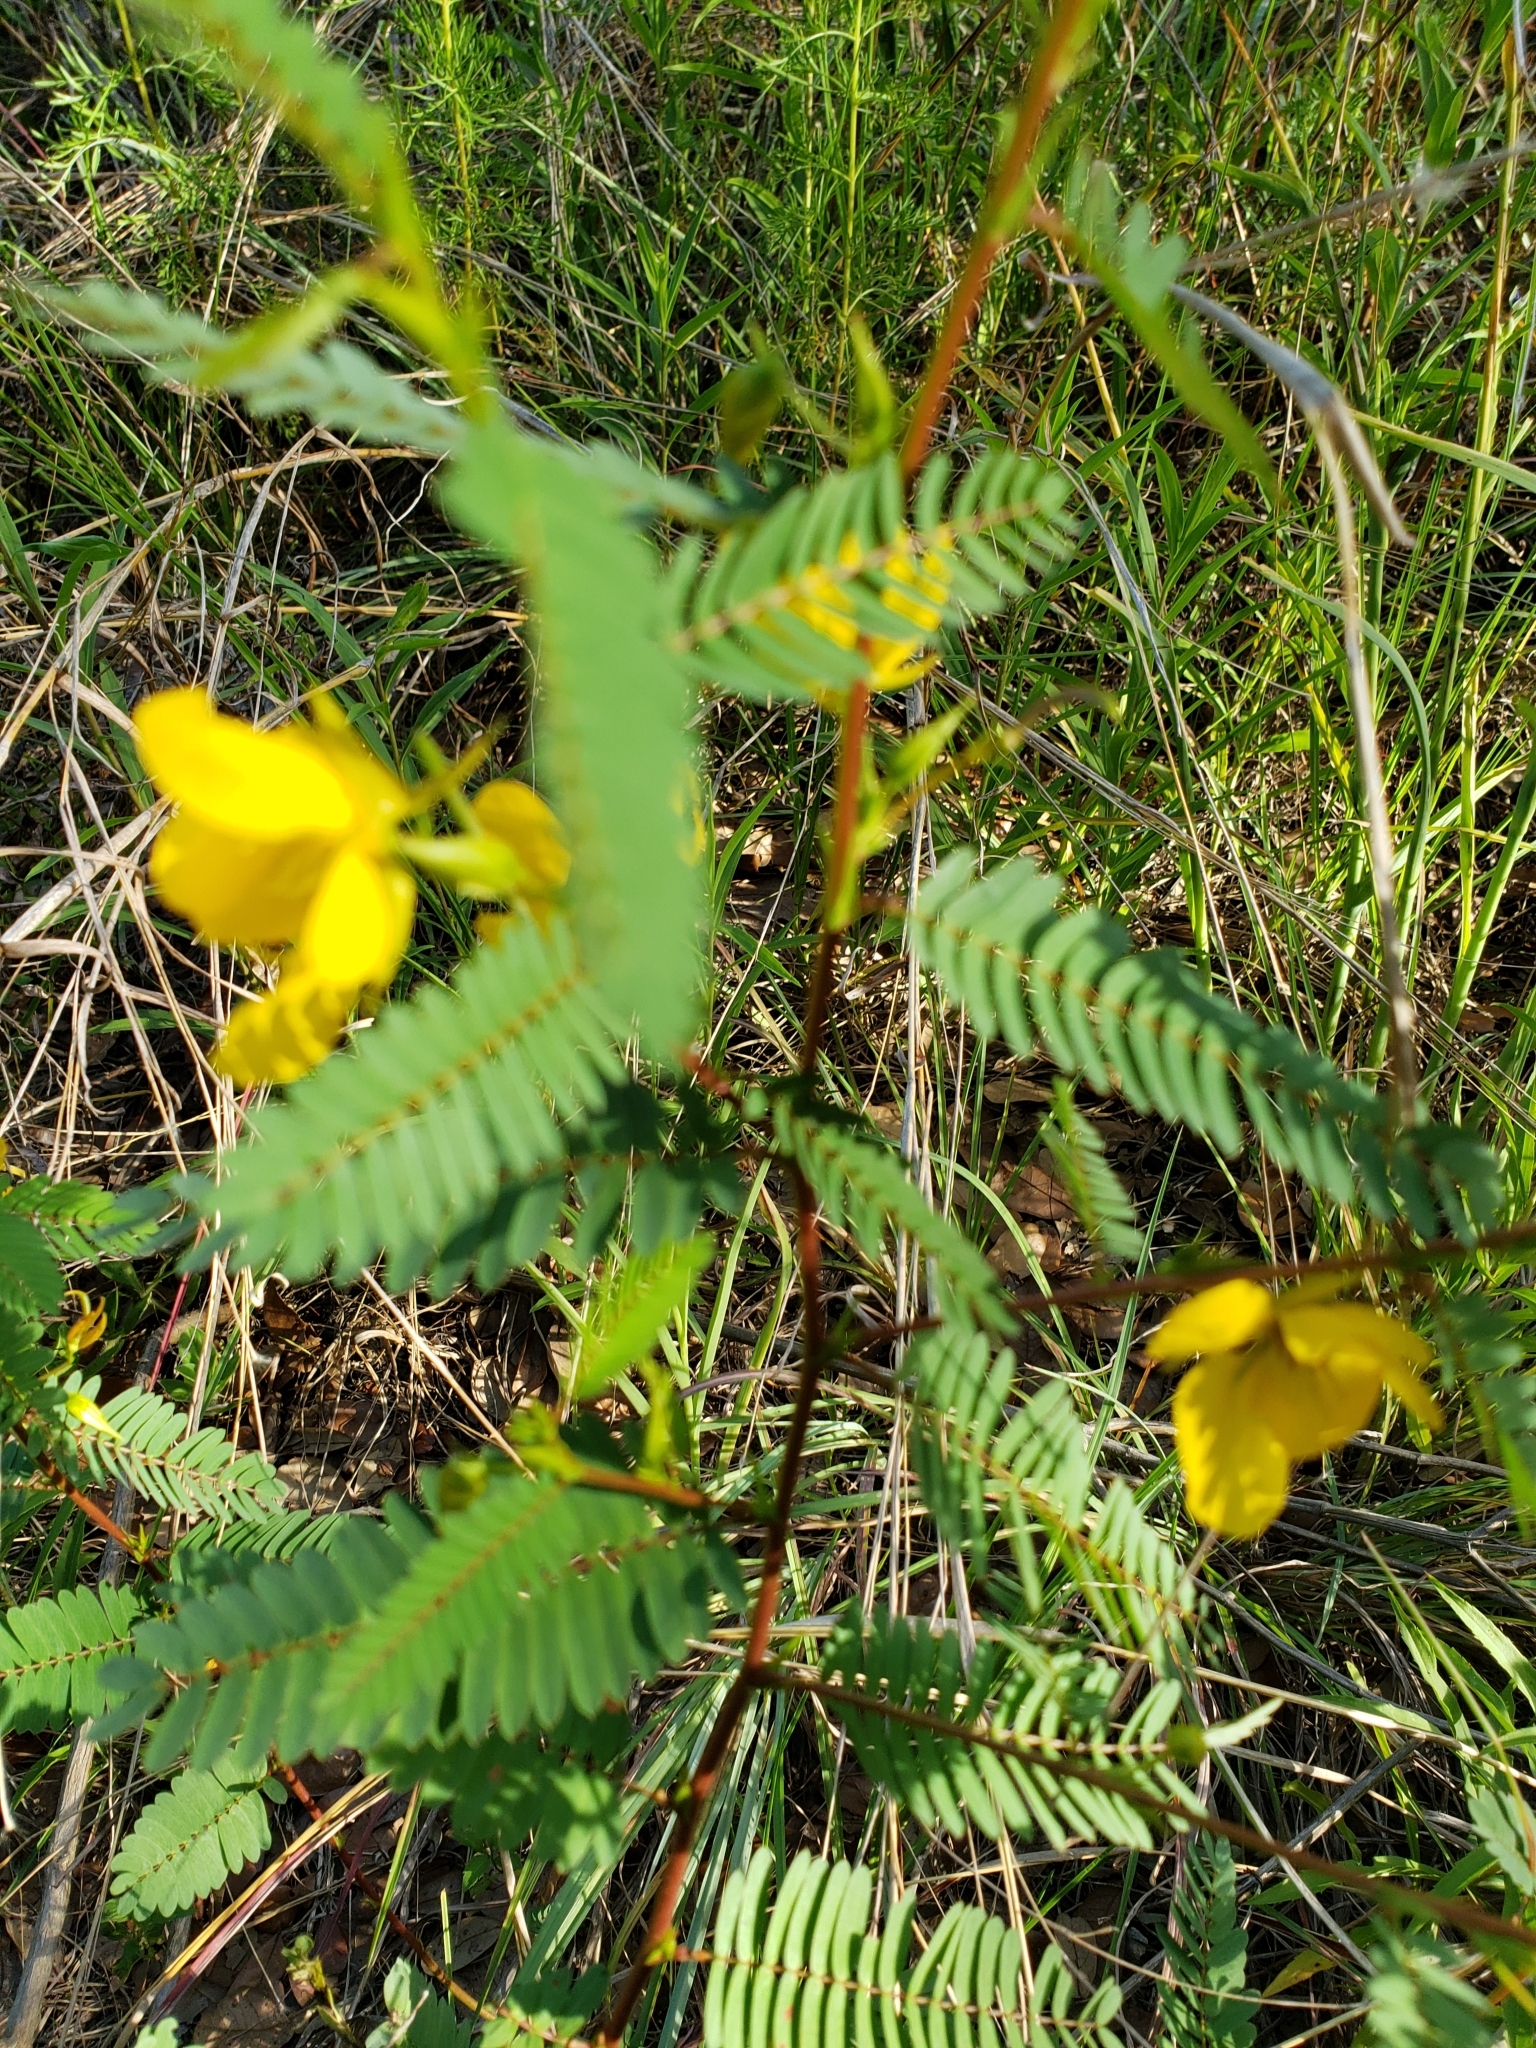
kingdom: Plantae
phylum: Tracheophyta
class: Magnoliopsida
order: Fabales
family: Fabaceae
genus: Chamaecrista
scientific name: Chamaecrista fasciculata
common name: Golden cassia
